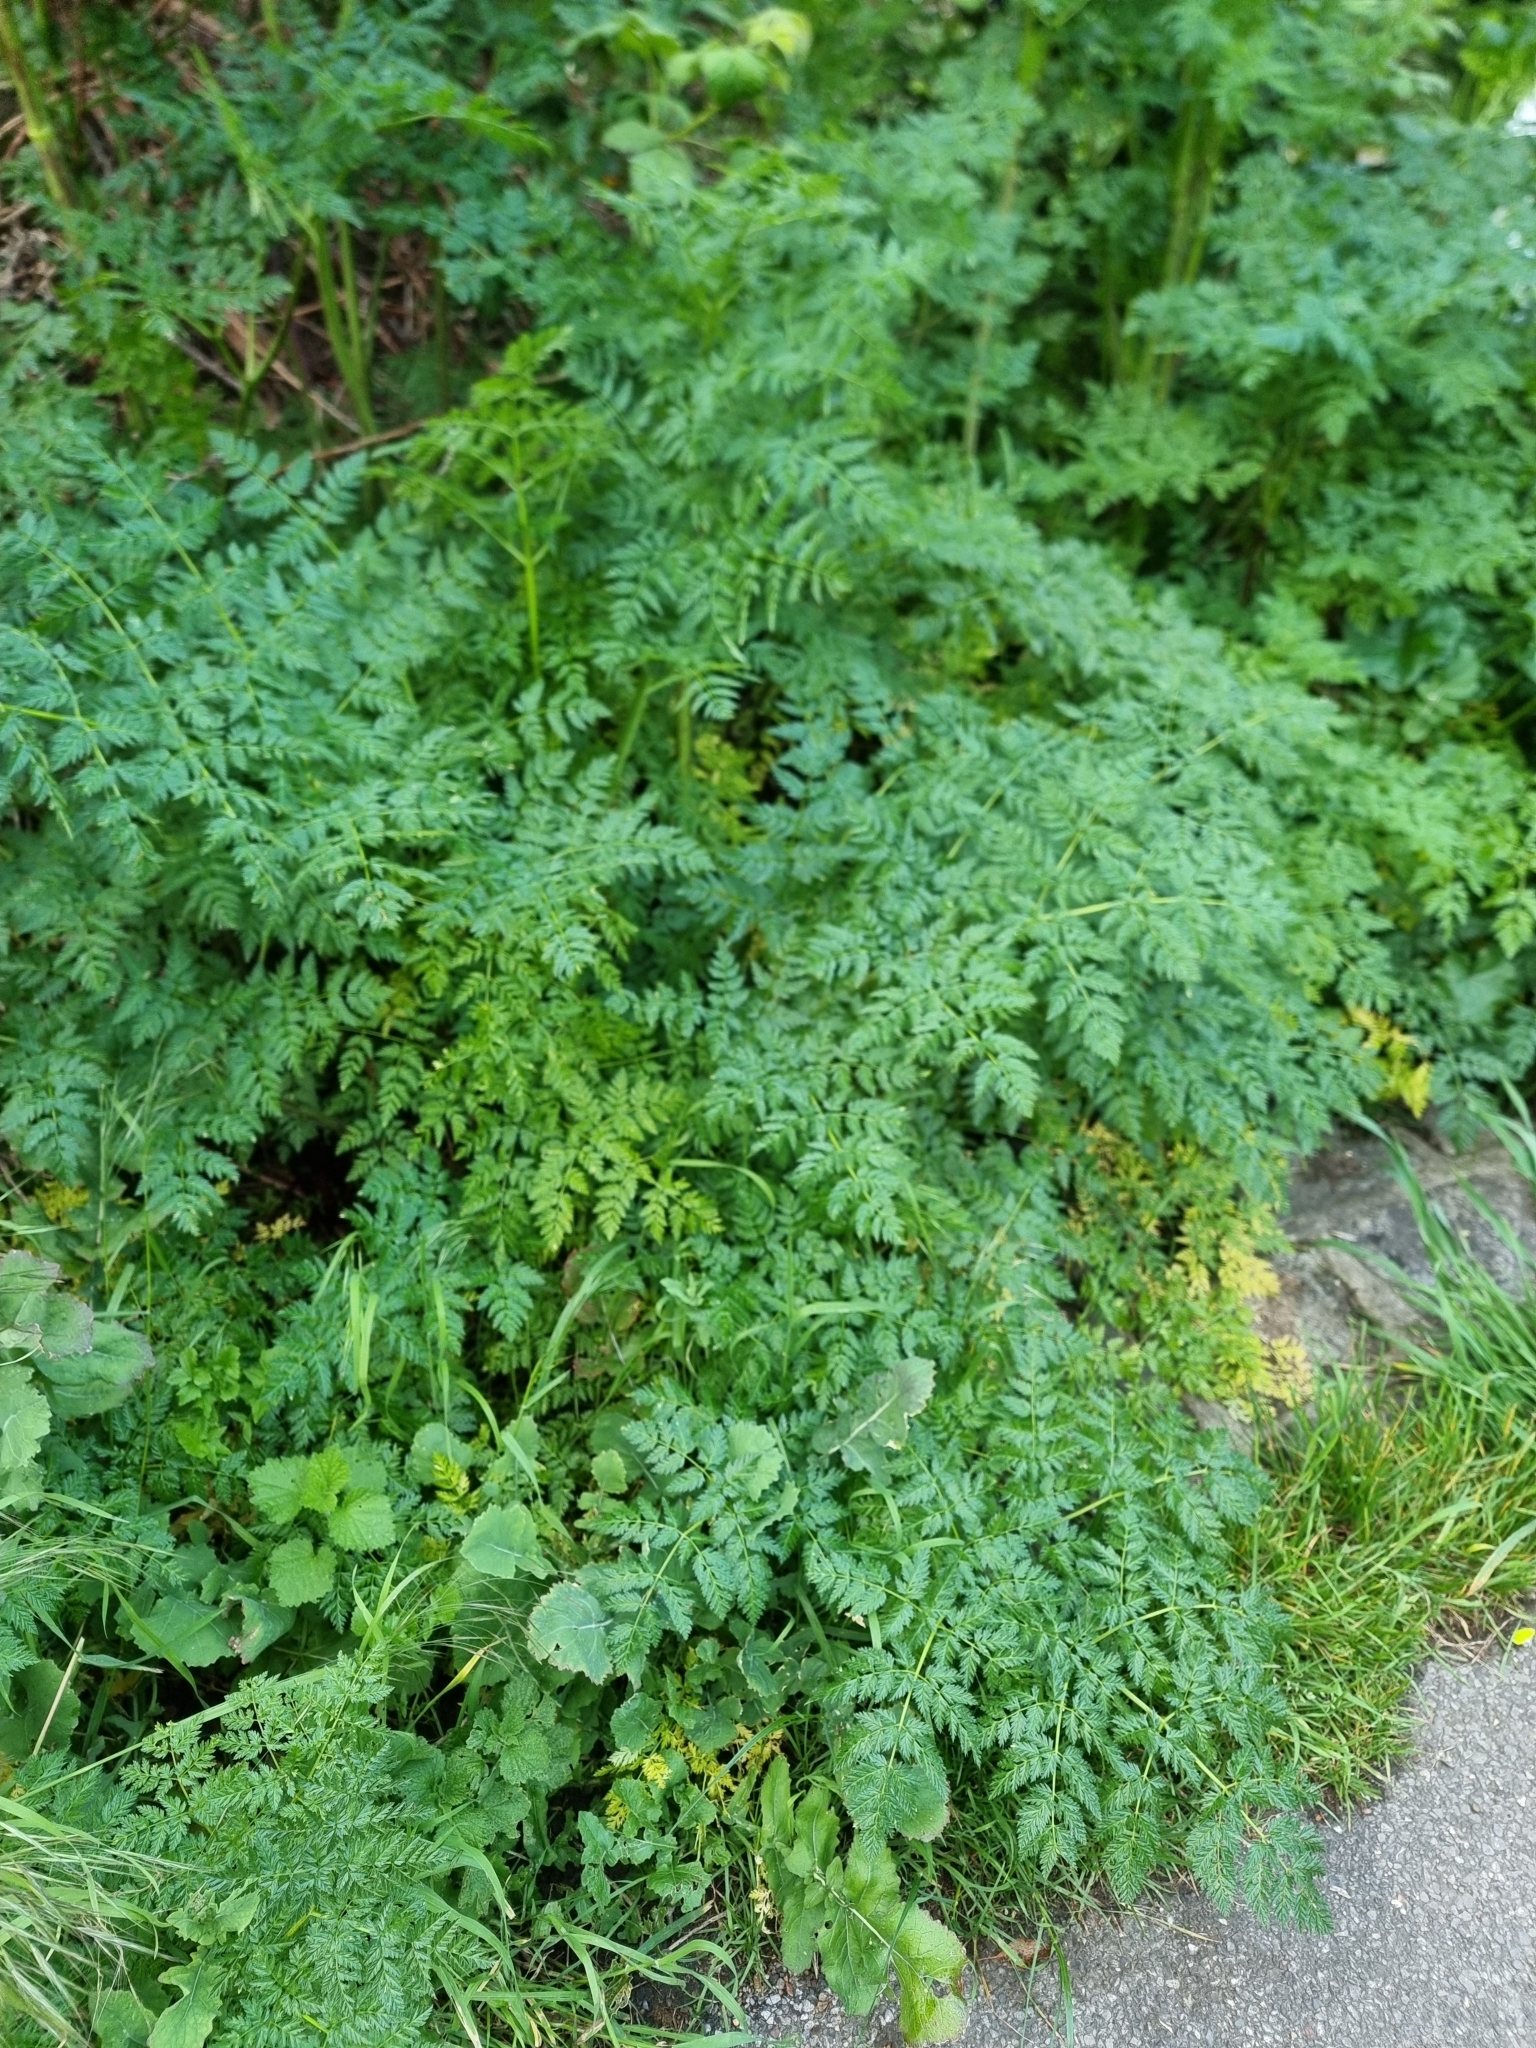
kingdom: Plantae
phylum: Tracheophyta
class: Magnoliopsida
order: Apiales
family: Apiaceae
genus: Conium
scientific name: Conium maculatum
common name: Hemlock
